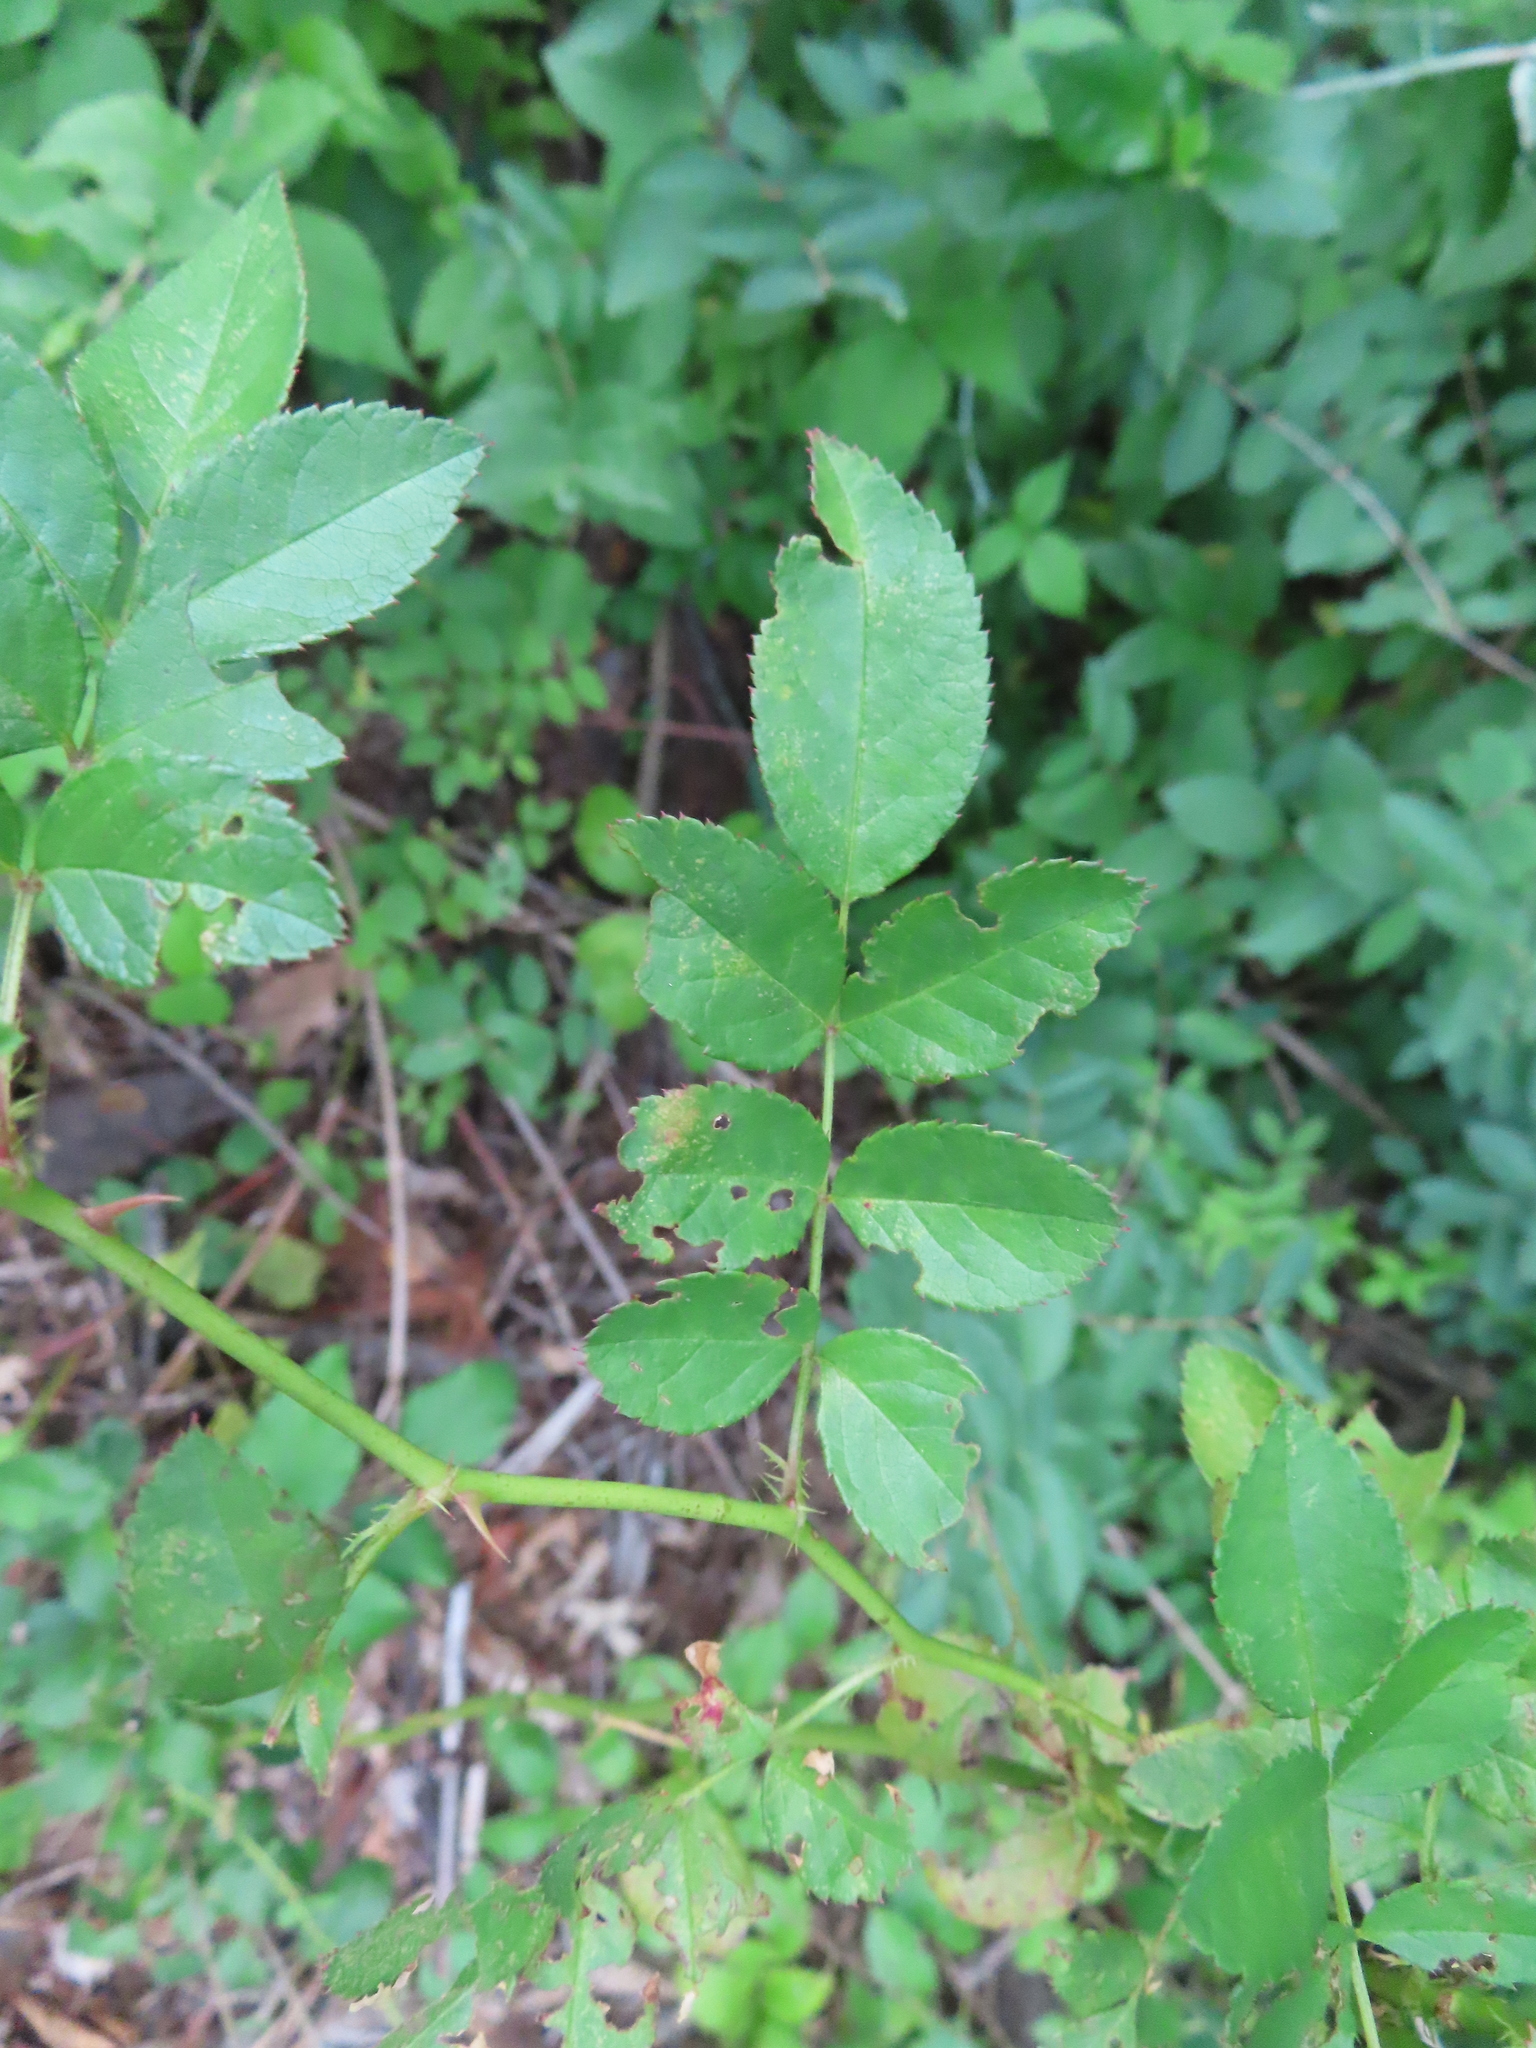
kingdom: Plantae
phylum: Tracheophyta
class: Magnoliopsida
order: Rosales
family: Rosaceae
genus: Rosa
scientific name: Rosa multiflora
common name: Multiflora rose
